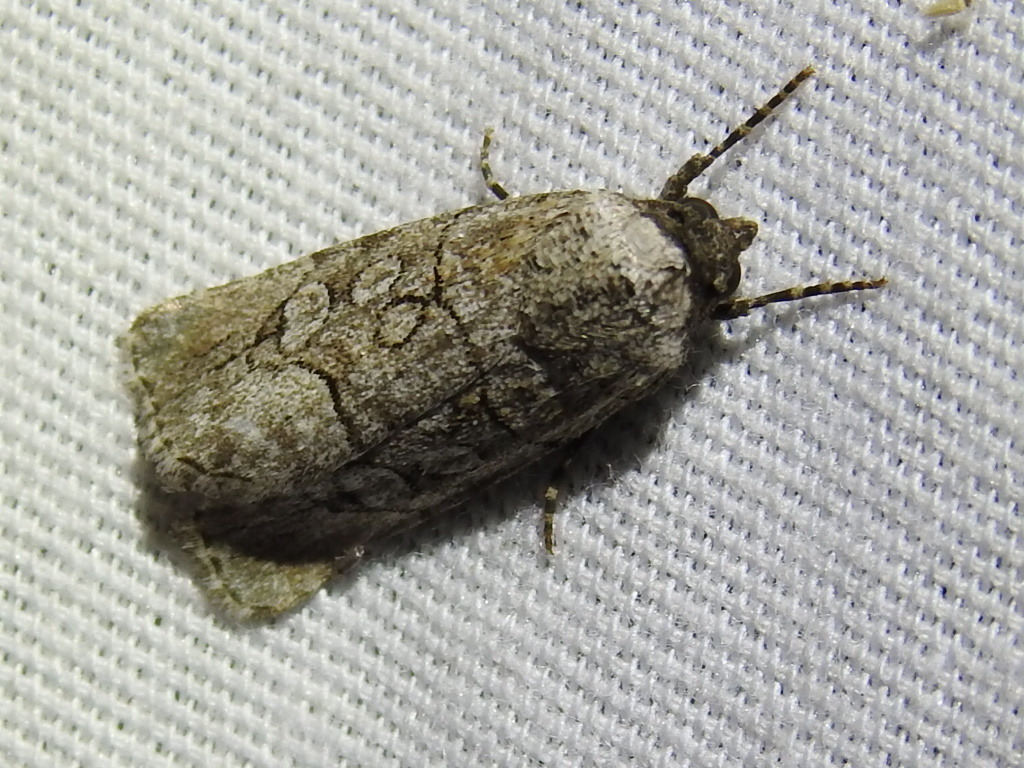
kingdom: Animalia
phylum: Arthropoda
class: Insecta
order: Lepidoptera
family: Noctuidae
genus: Sympistis
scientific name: Sympistis sectiloides
